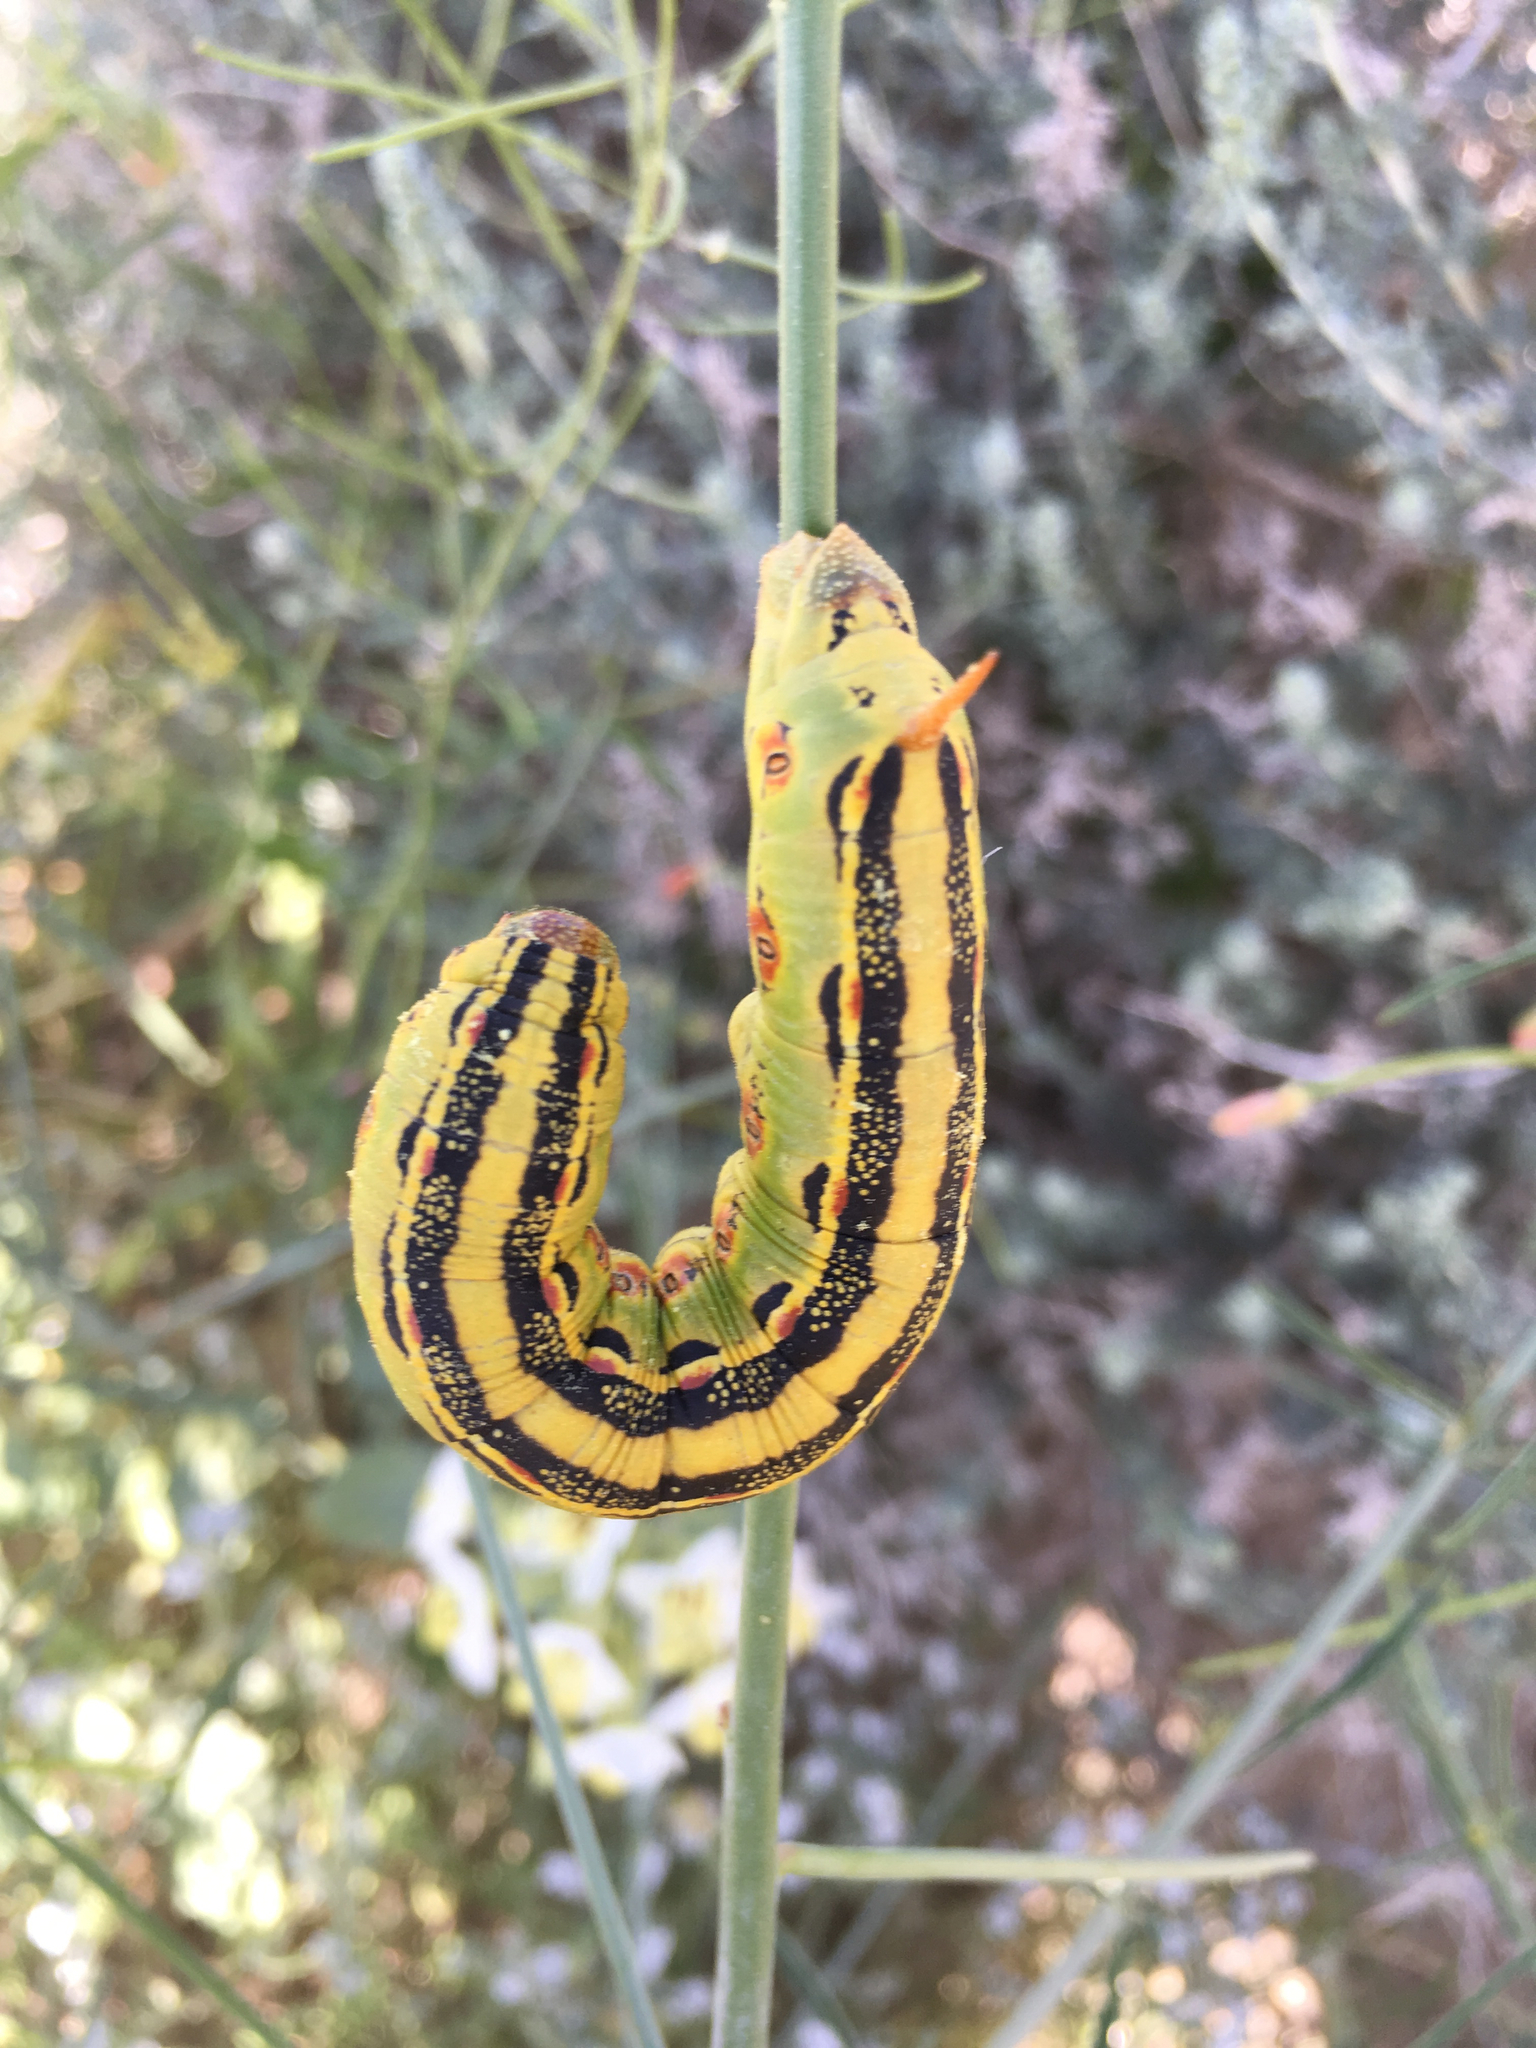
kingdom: Animalia
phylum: Arthropoda
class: Insecta
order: Lepidoptera
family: Sphingidae
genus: Hyles
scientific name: Hyles lineata
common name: White-lined sphinx
